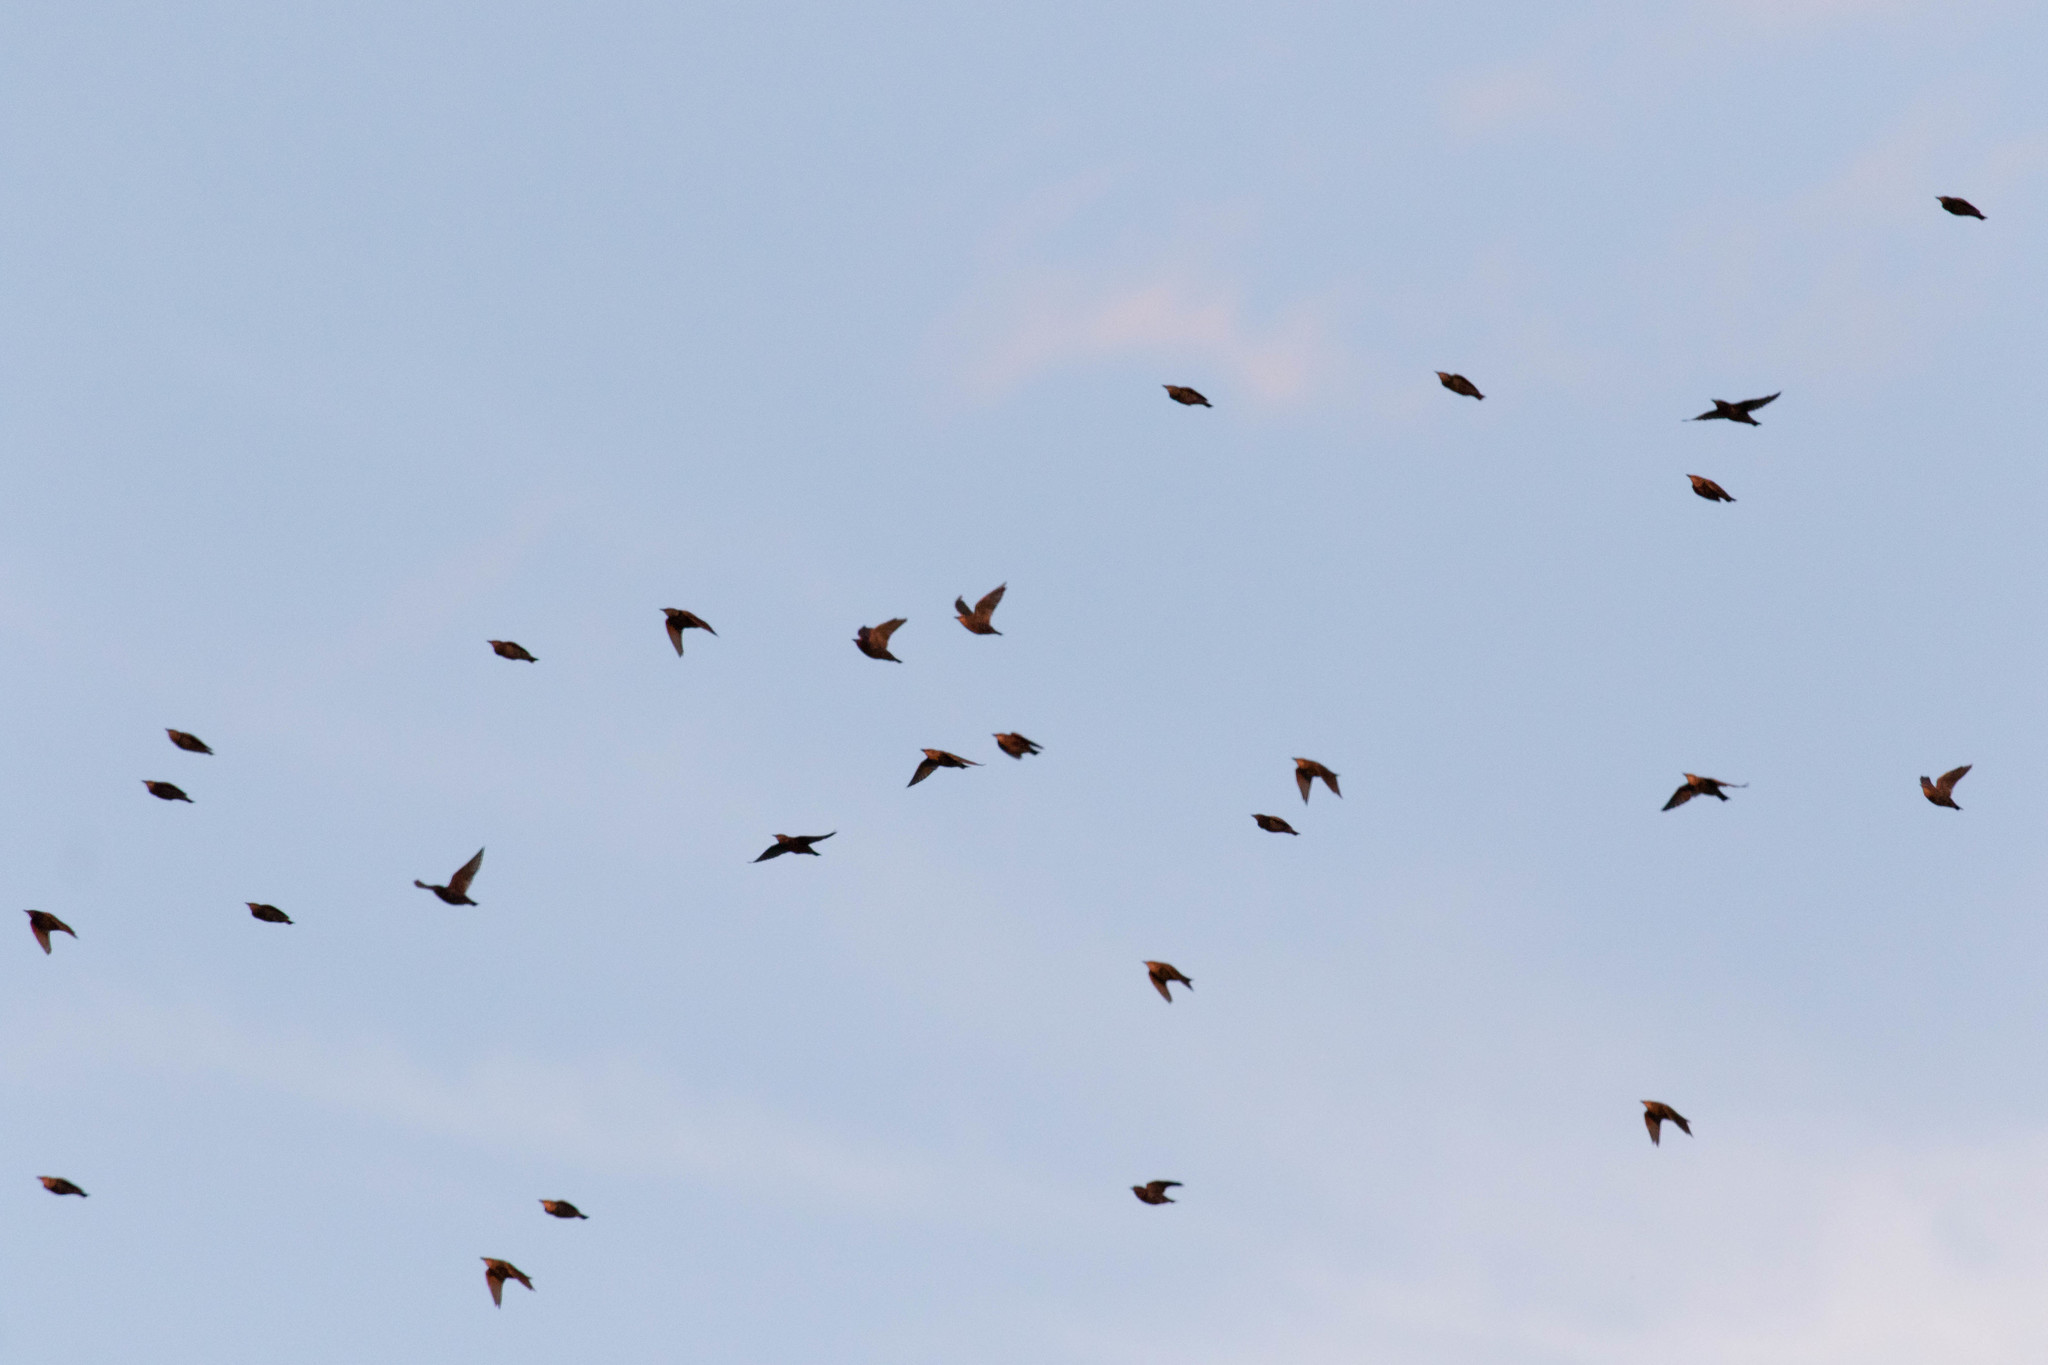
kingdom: Animalia
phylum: Chordata
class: Aves
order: Passeriformes
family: Sturnidae
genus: Sturnus
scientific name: Sturnus vulgaris
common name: Common starling
